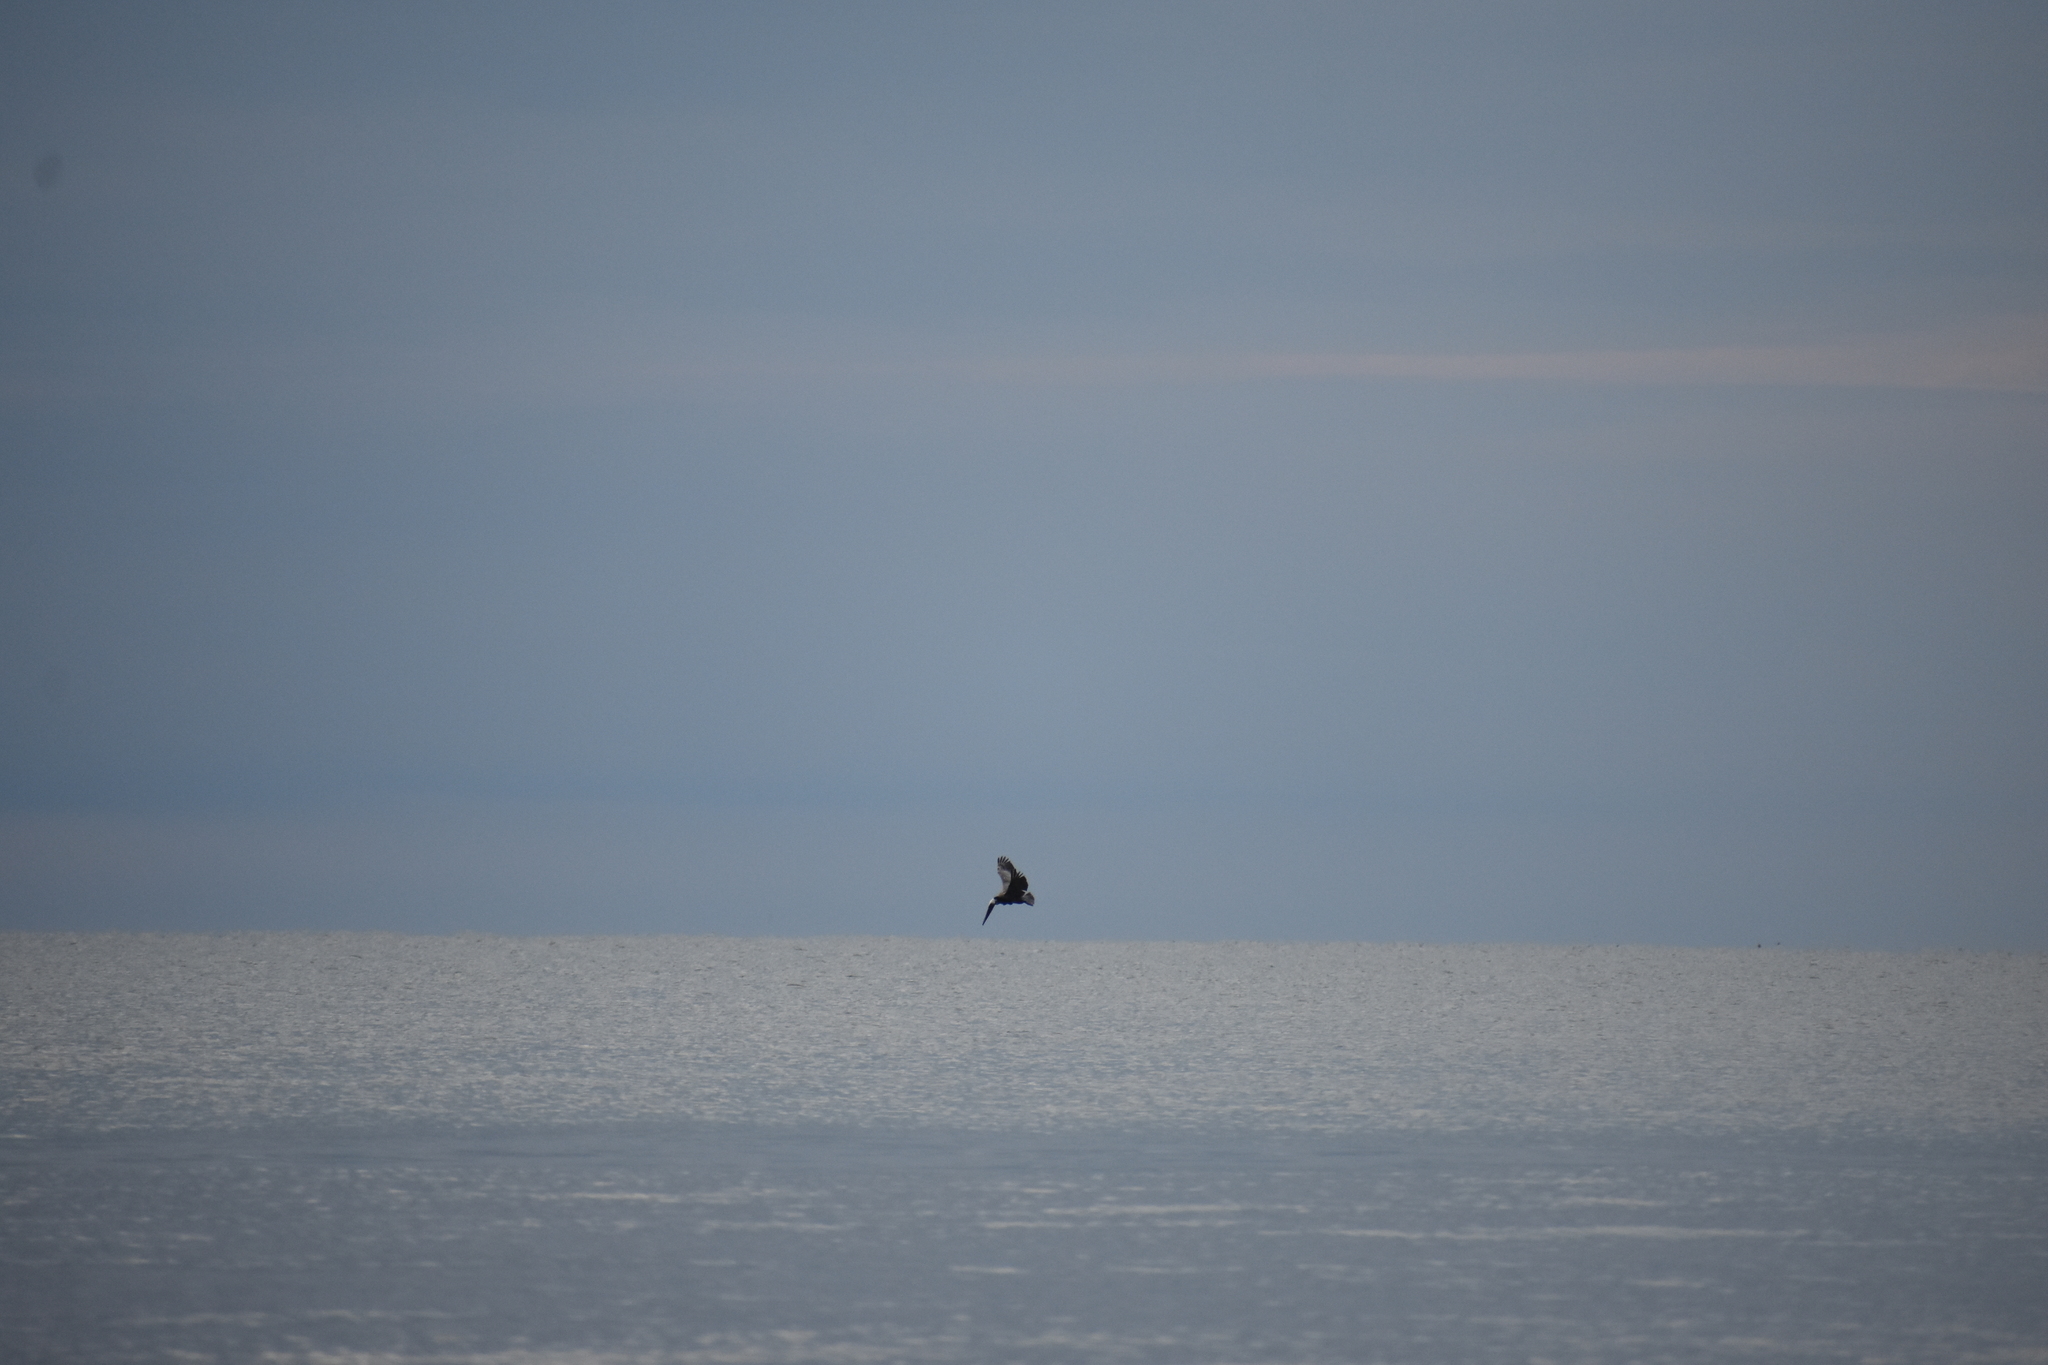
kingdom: Animalia
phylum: Chordata
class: Aves
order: Pelecaniformes
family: Pelecanidae
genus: Pelecanus
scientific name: Pelecanus occidentalis
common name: Brown pelican
